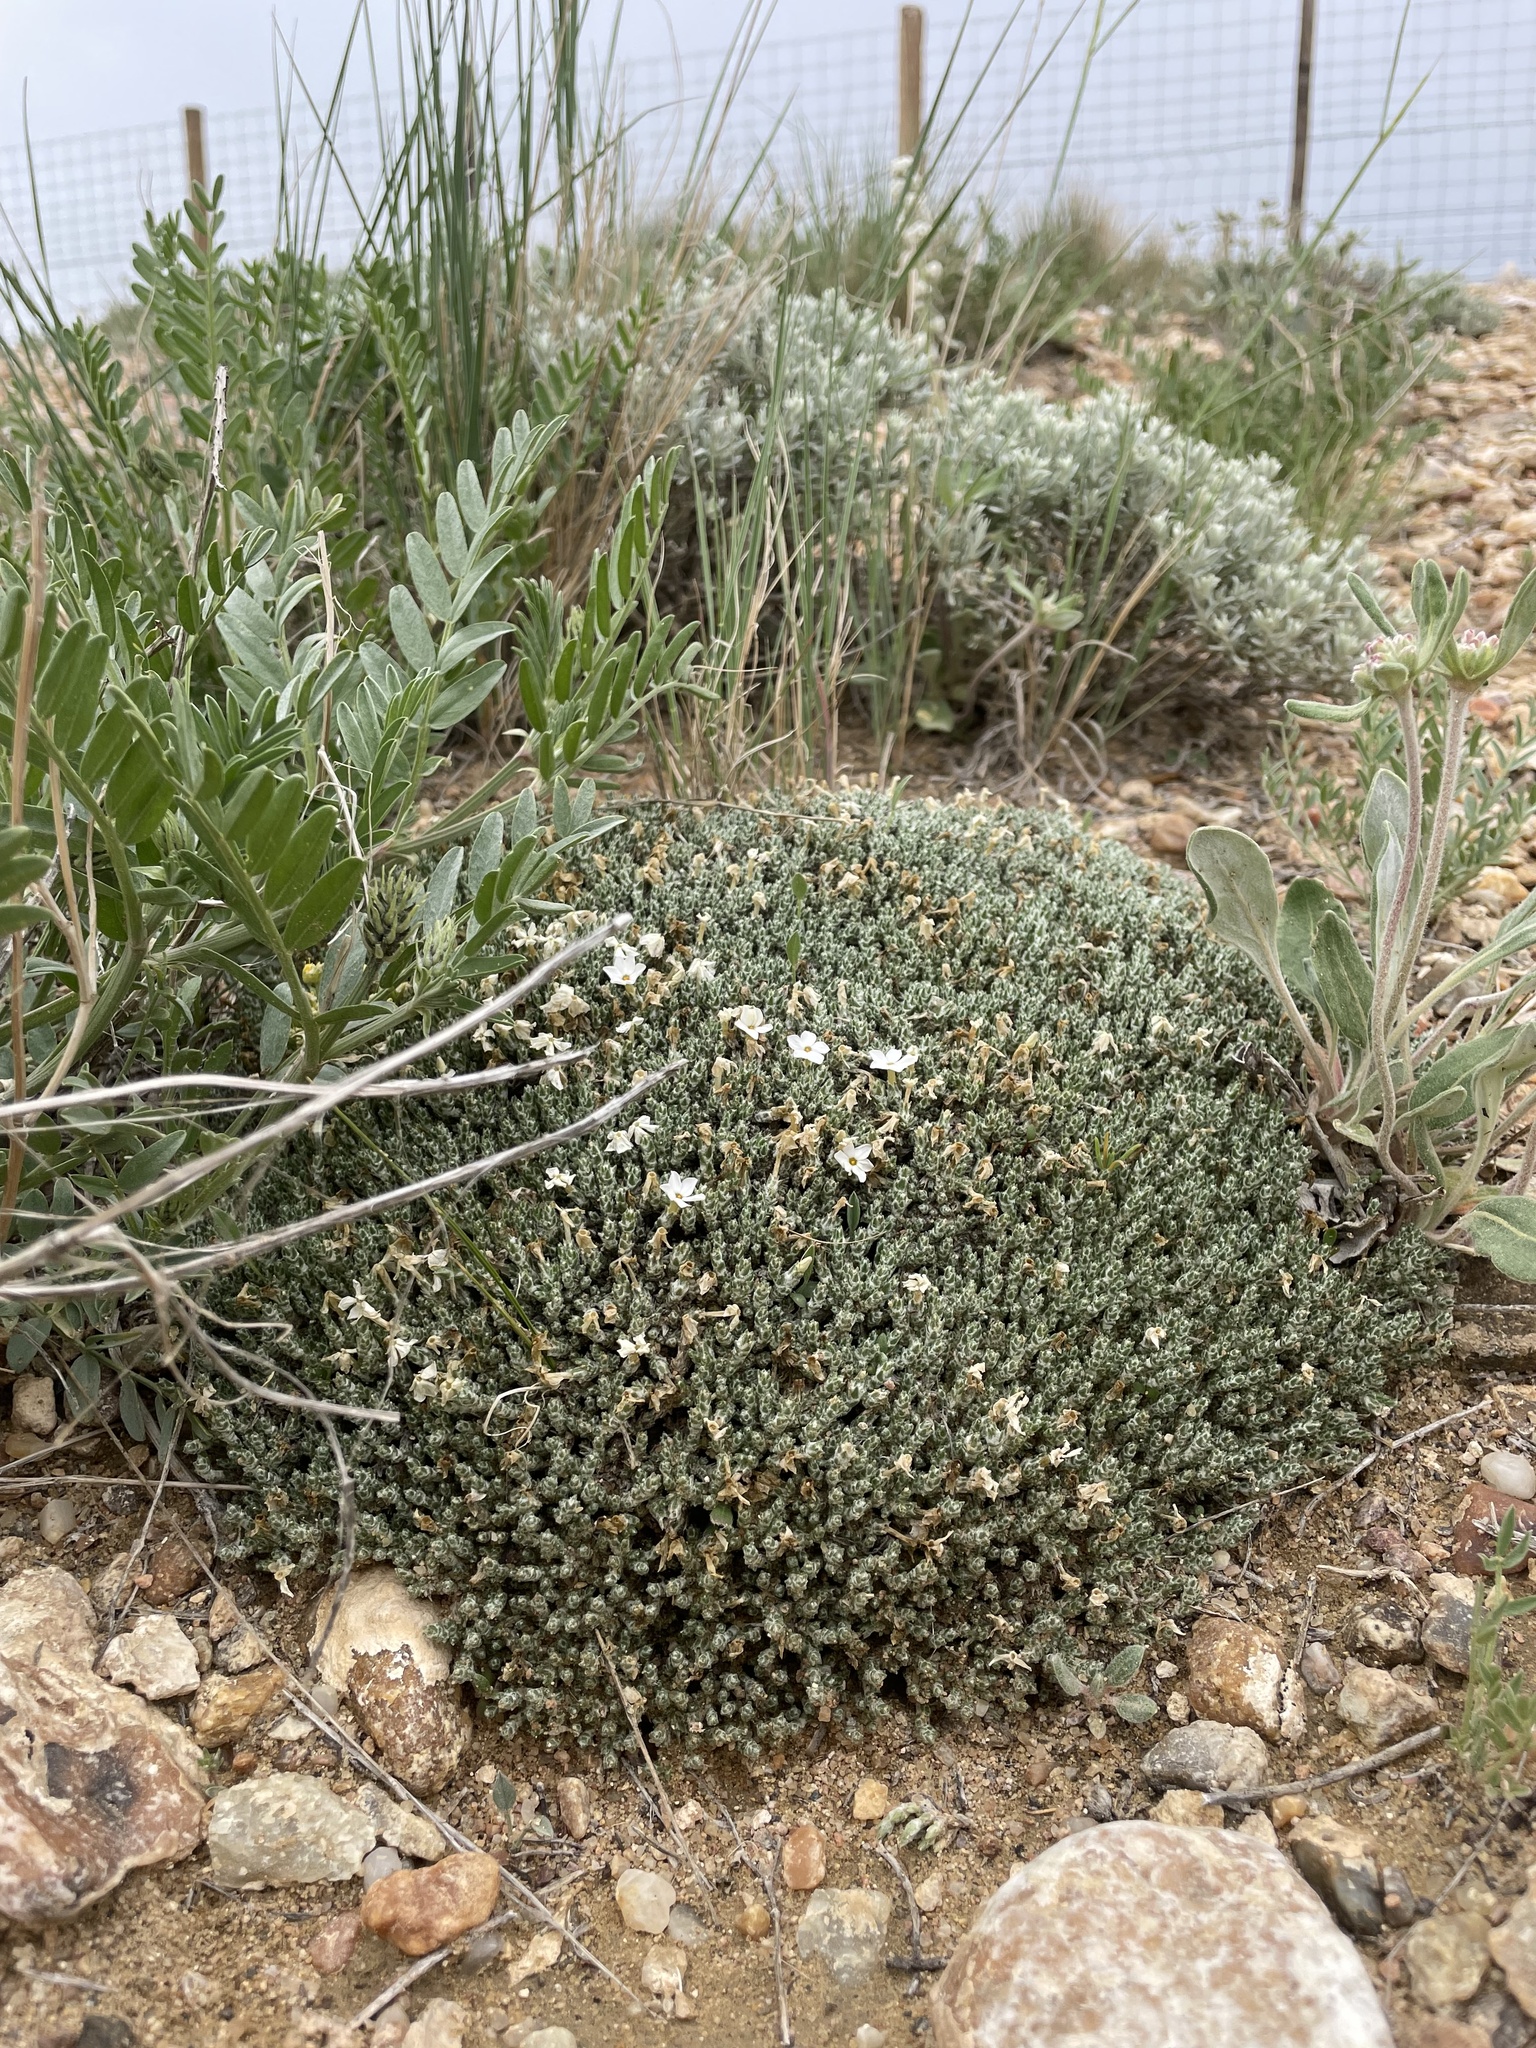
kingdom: Plantae
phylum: Tracheophyta
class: Magnoliopsida
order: Ericales
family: Polemoniaceae
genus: Phlox
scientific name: Phlox hoodii
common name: Moss phlox
